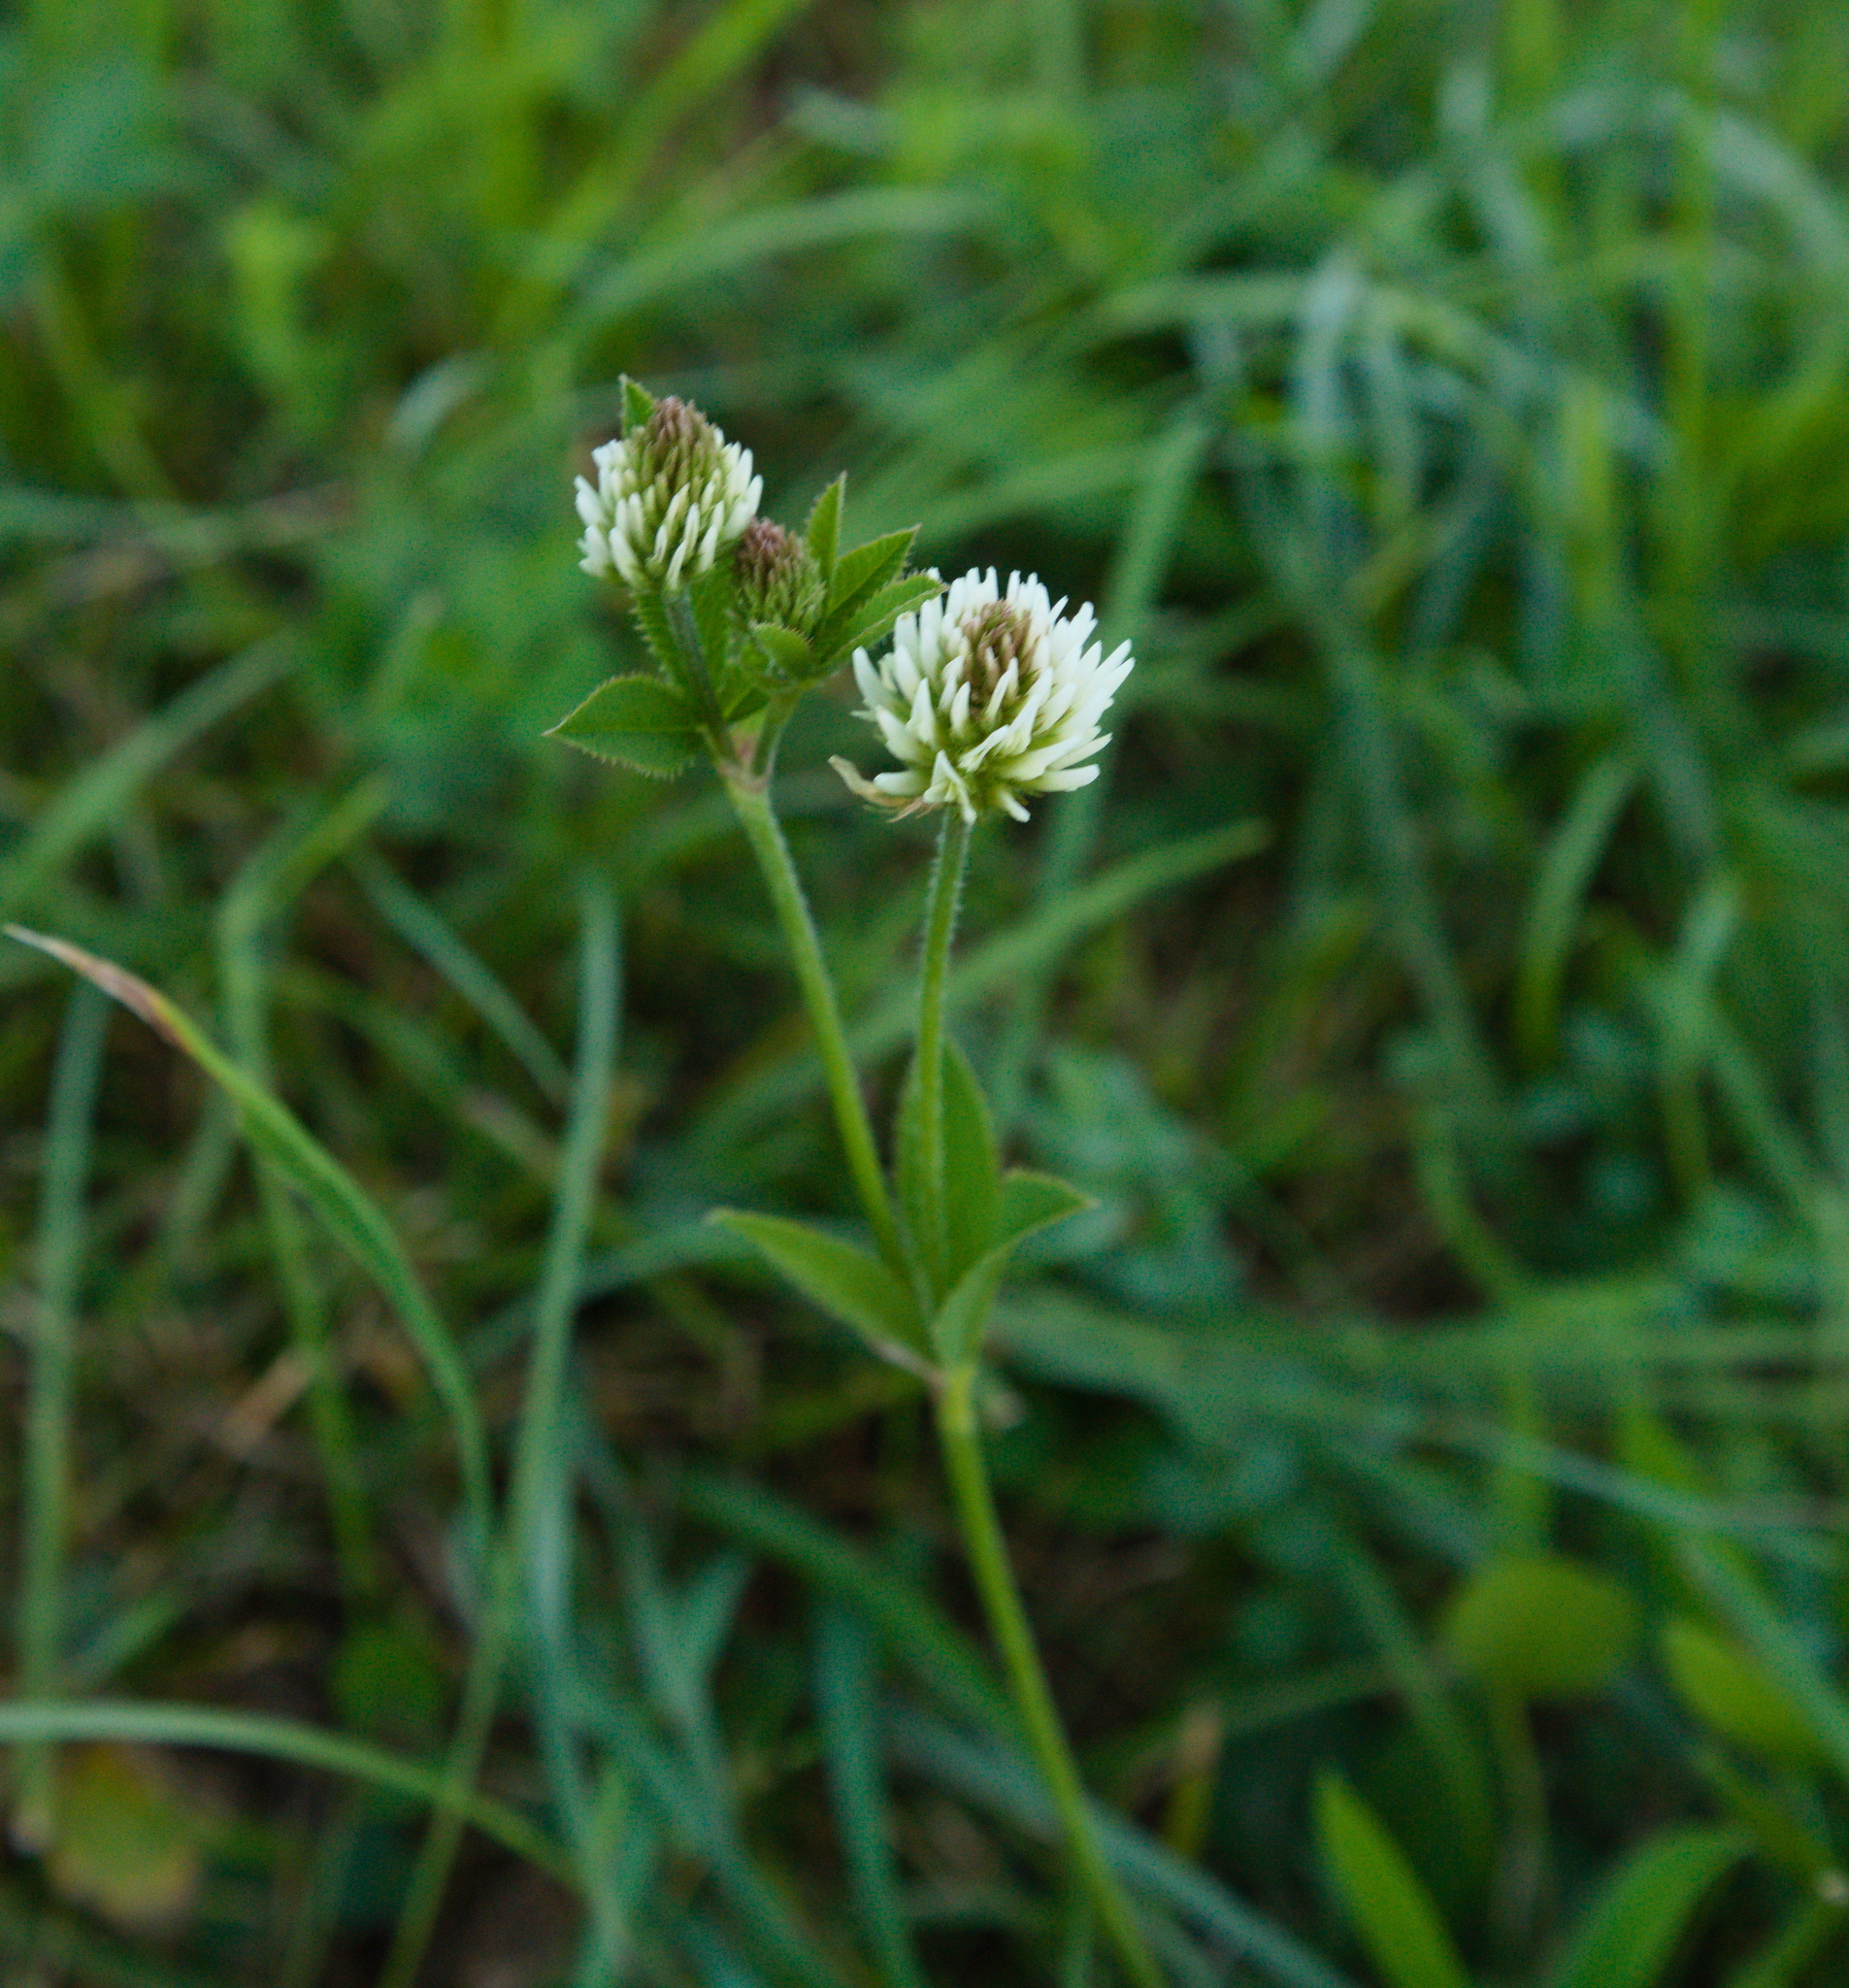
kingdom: Plantae
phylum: Tracheophyta
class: Magnoliopsida
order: Fabales
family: Fabaceae
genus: Trifolium
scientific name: Trifolium montanum
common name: Mountain clover
